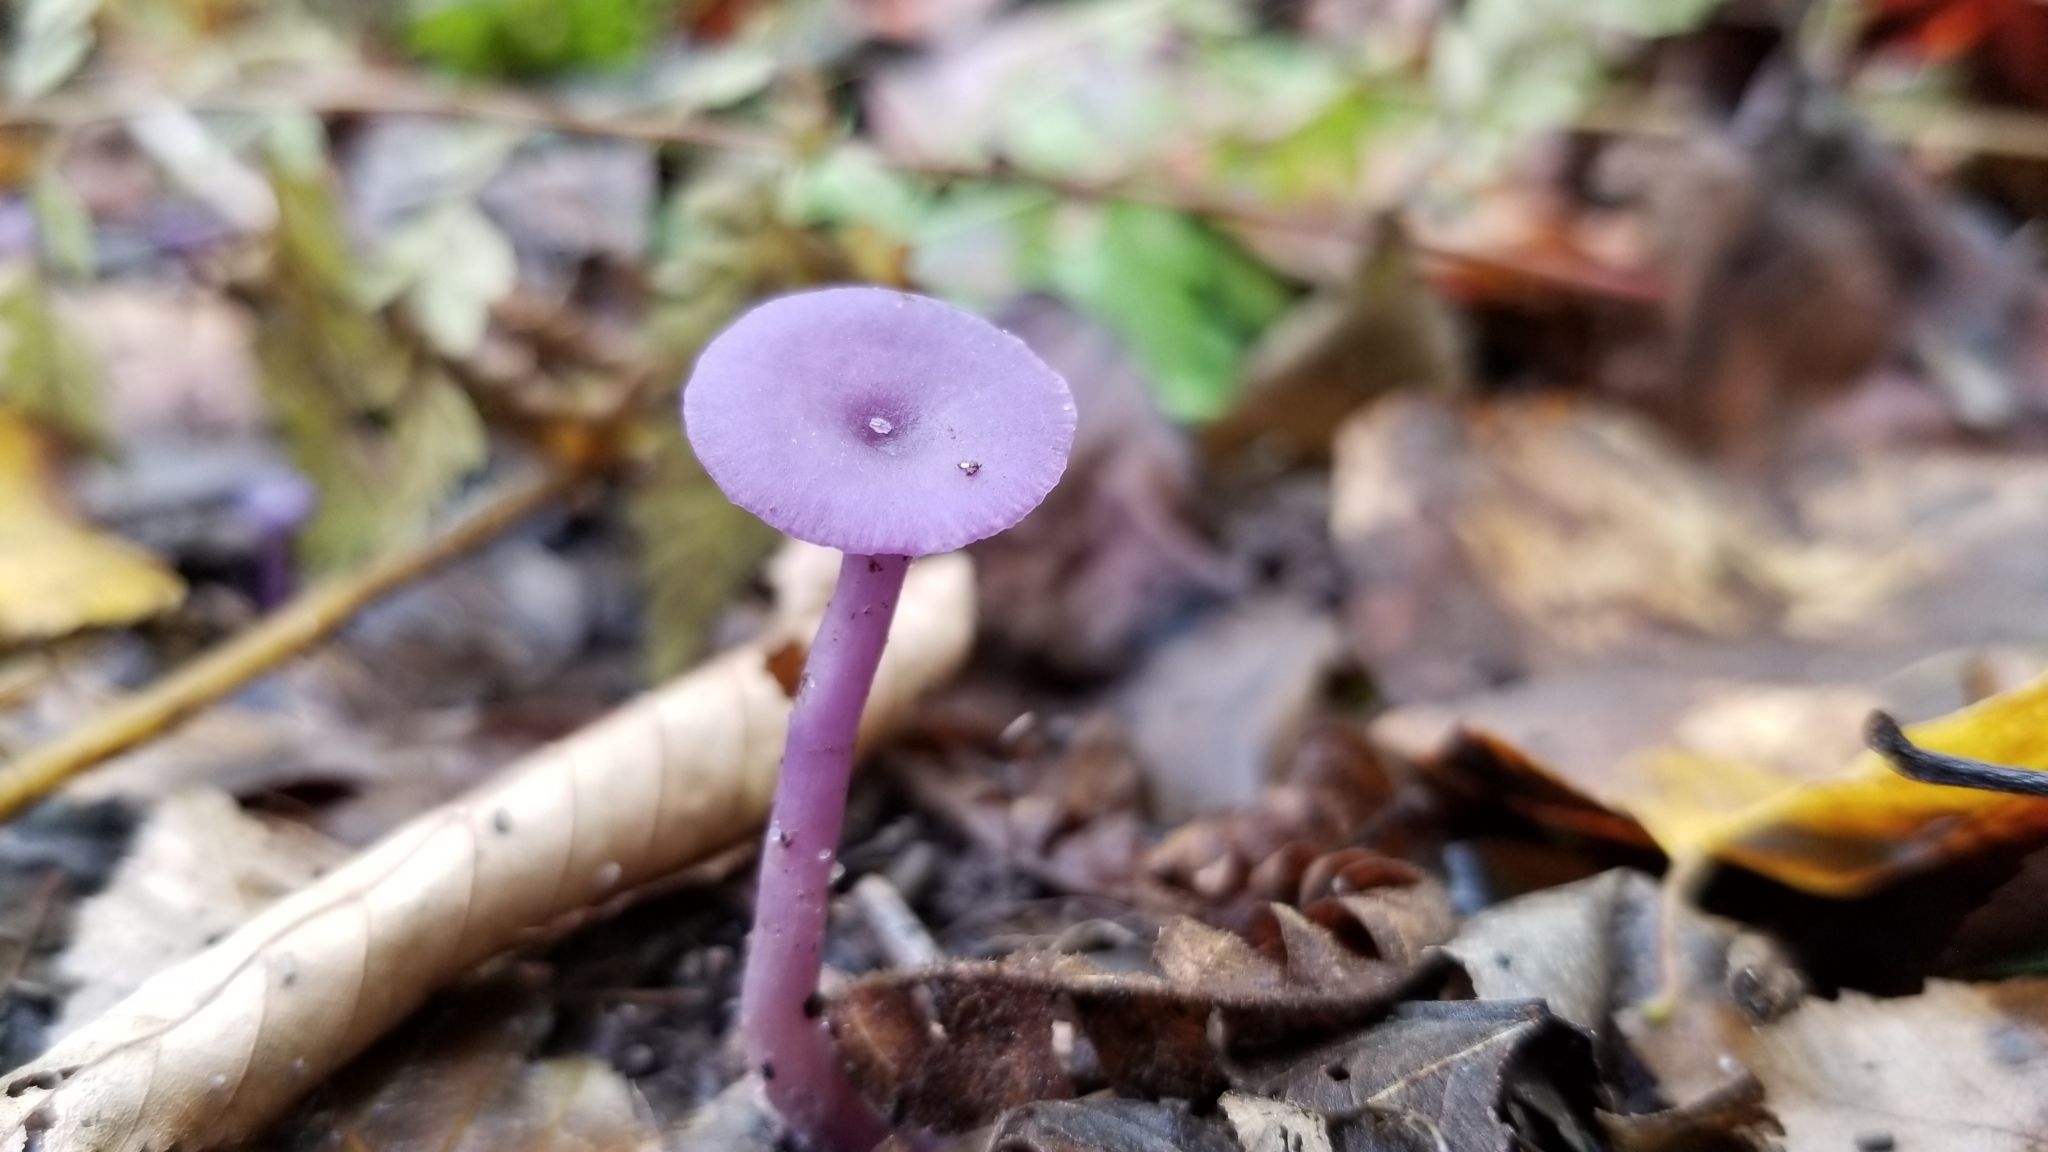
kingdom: Fungi
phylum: Basidiomycota
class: Agaricomycetes
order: Agaricales
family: Hydnangiaceae
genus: Laccaria
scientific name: Laccaria amethystina
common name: Amethyst deceiver
